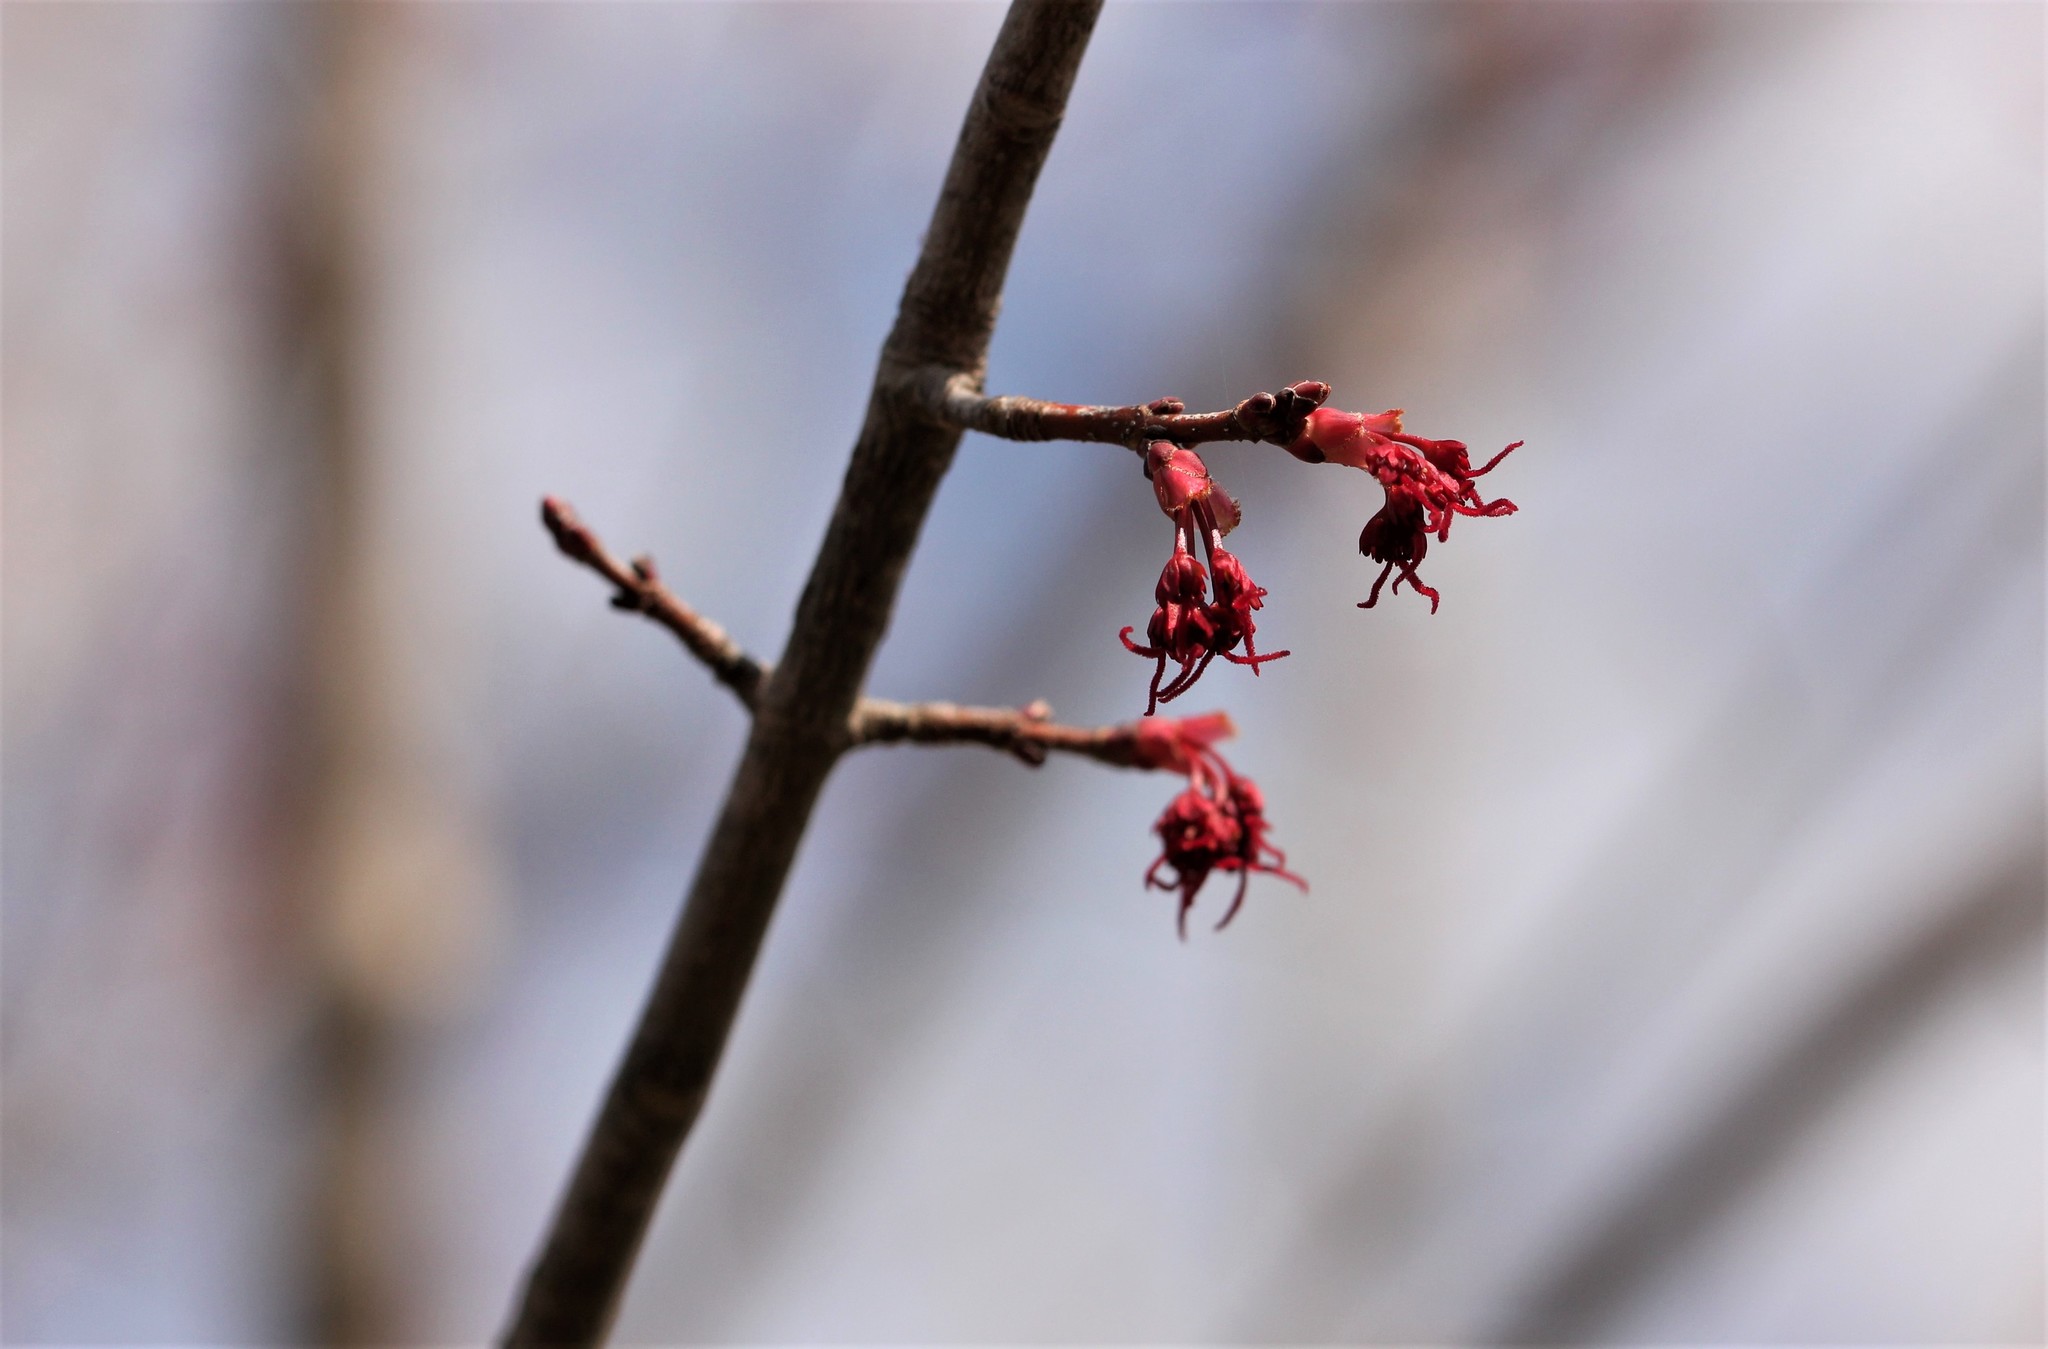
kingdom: Plantae
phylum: Tracheophyta
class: Magnoliopsida
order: Sapindales
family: Sapindaceae
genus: Acer
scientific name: Acer rubrum
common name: Red maple
